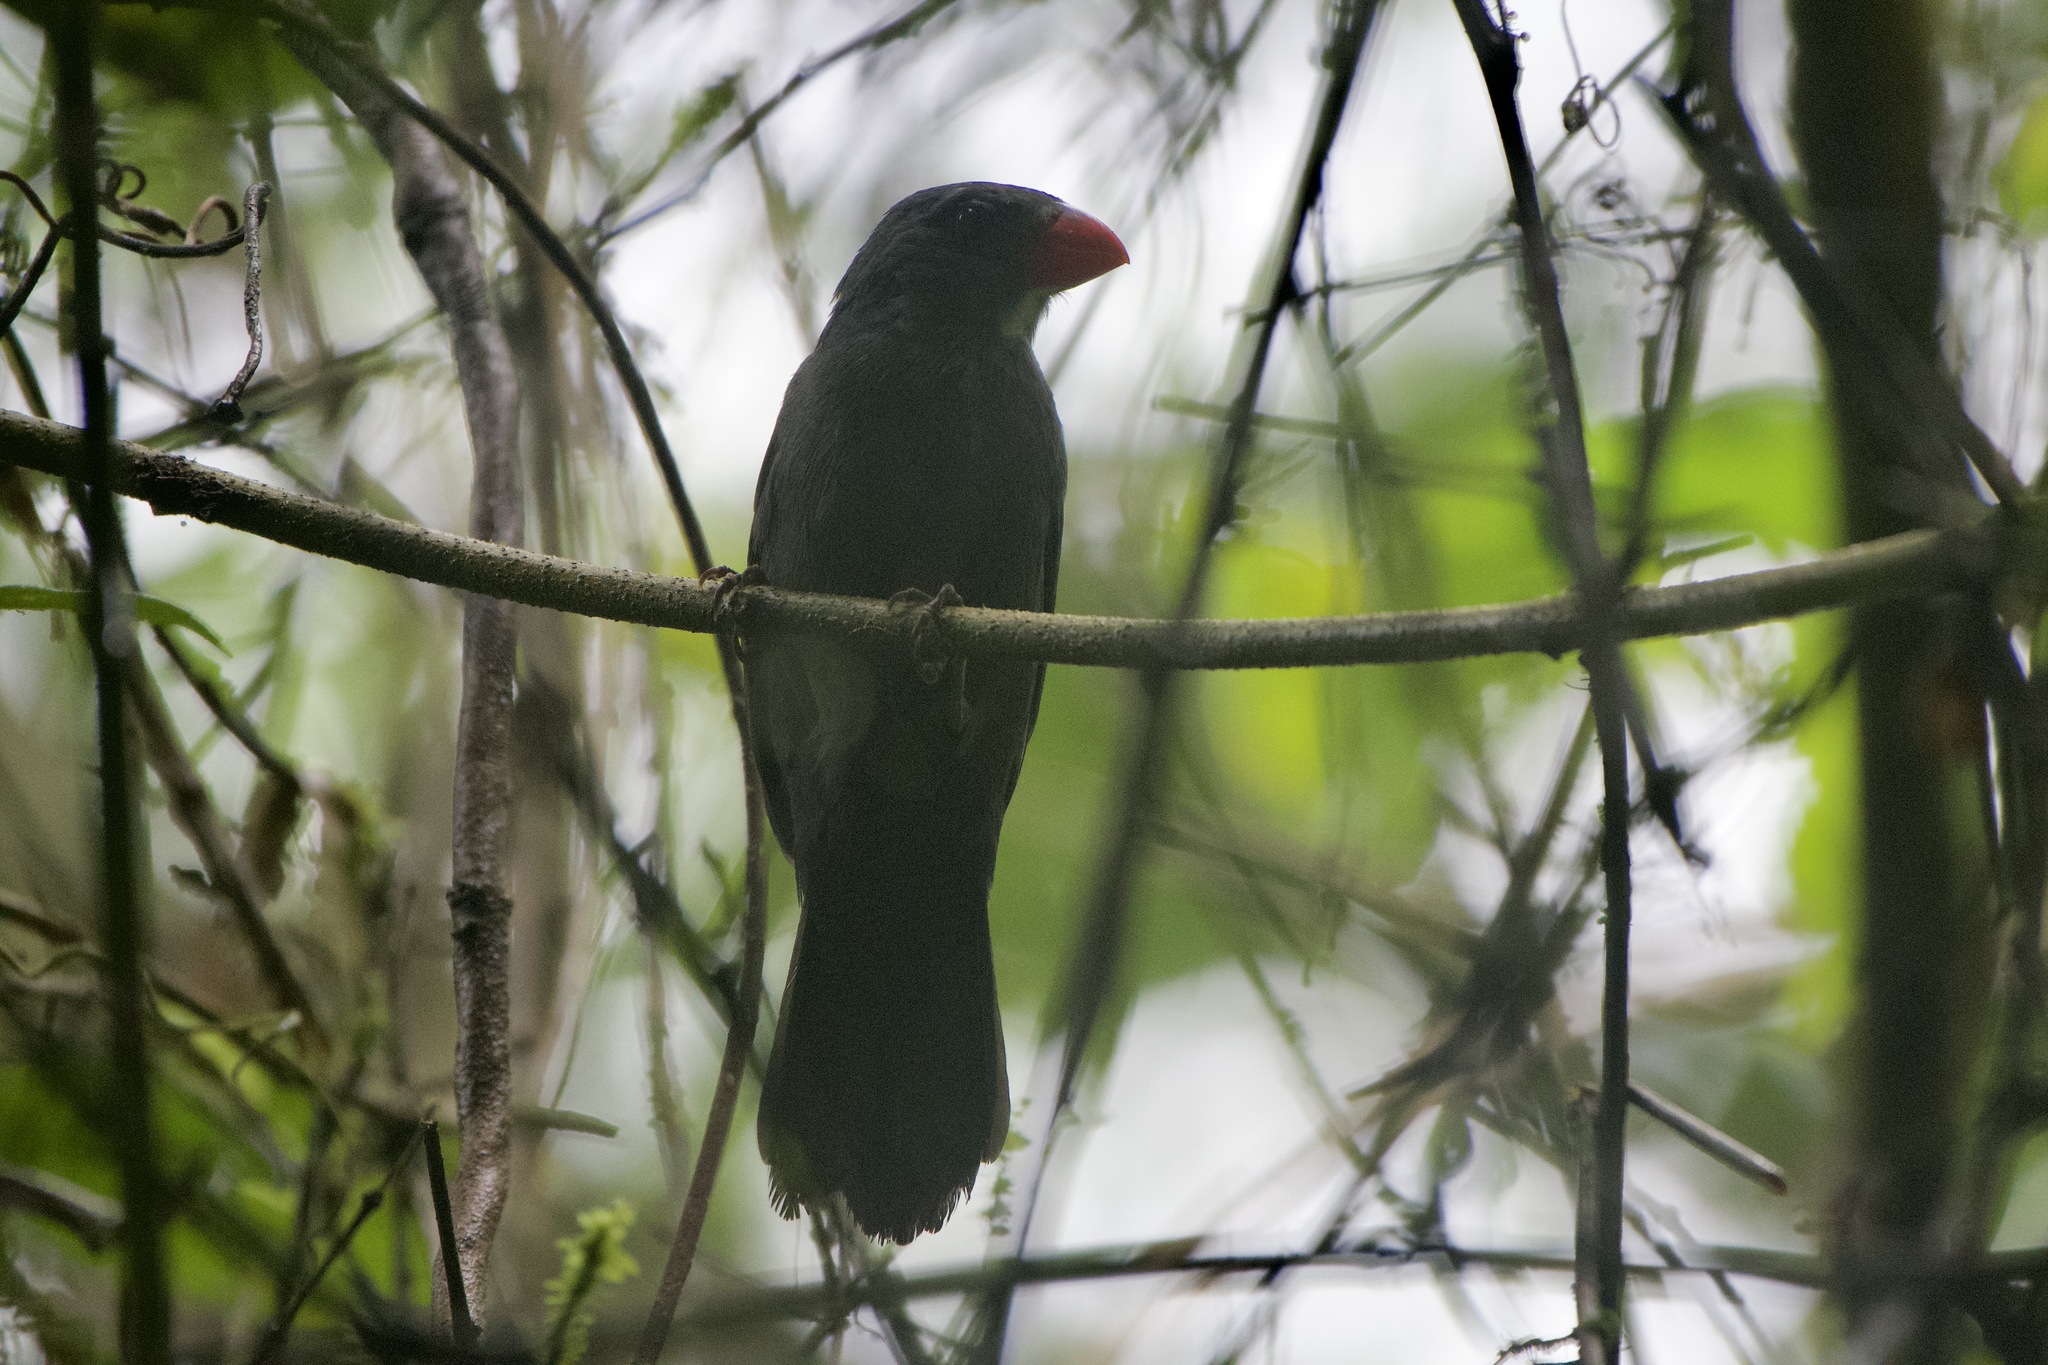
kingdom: Animalia
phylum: Chordata
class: Aves
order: Passeriformes
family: Thraupidae
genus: Saltator
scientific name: Saltator grossus
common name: Slate-colored grosbeak
